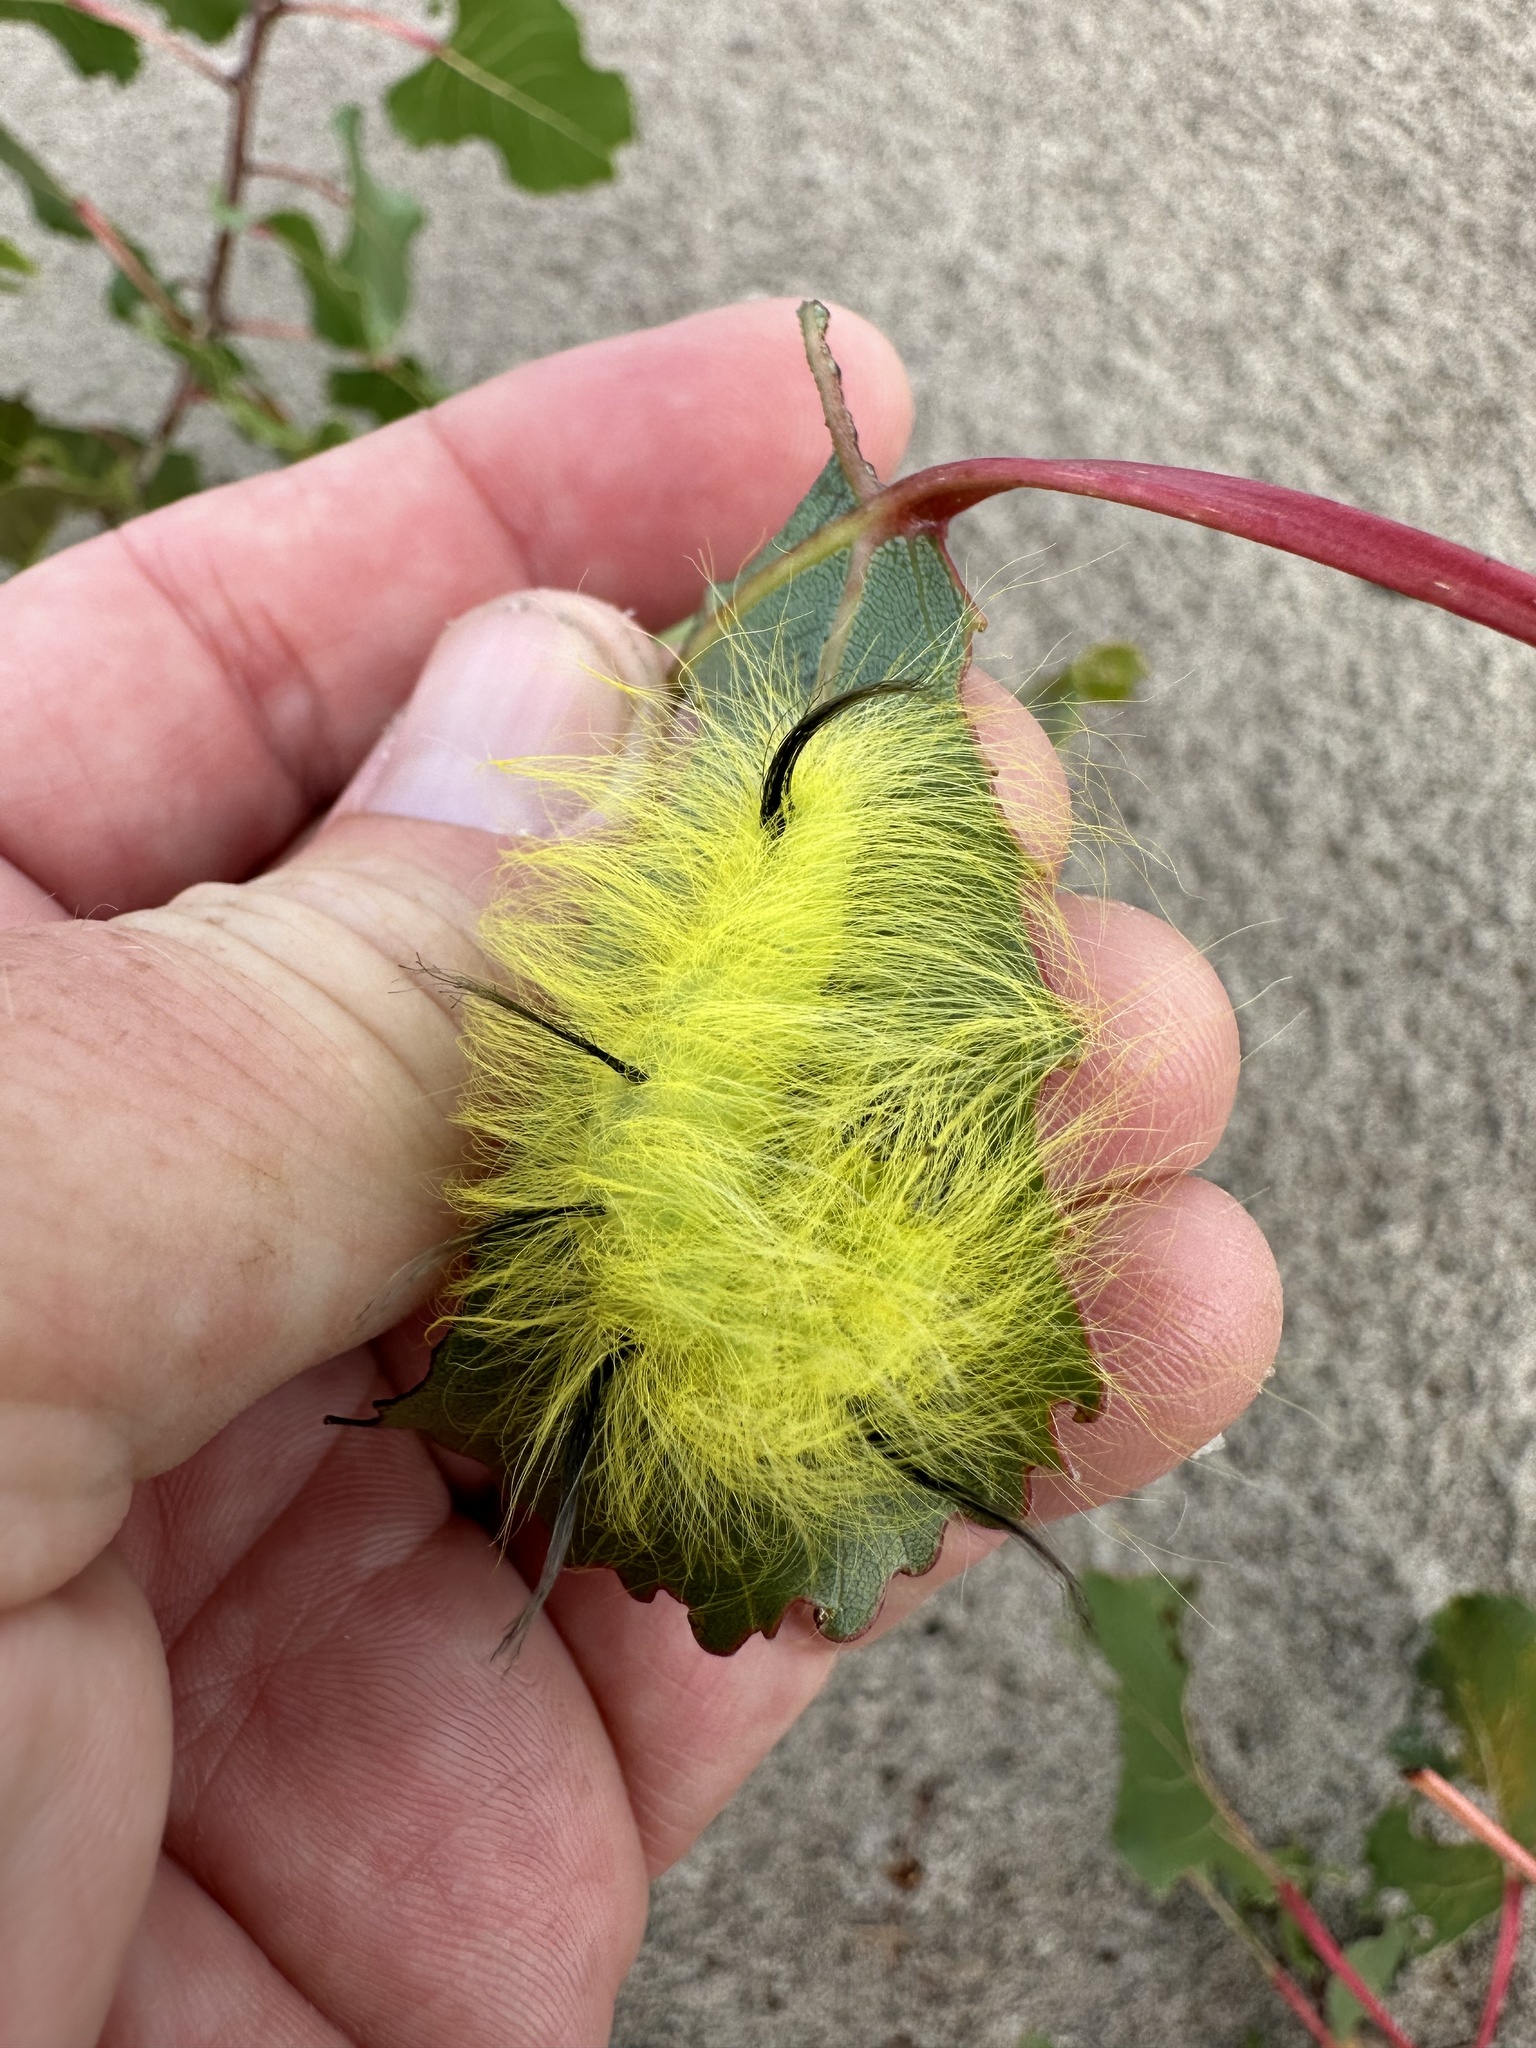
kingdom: Animalia
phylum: Arthropoda
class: Insecta
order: Lepidoptera
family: Noctuidae
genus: Acronicta
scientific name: Acronicta lepusculina
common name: Cottonwood dagger
